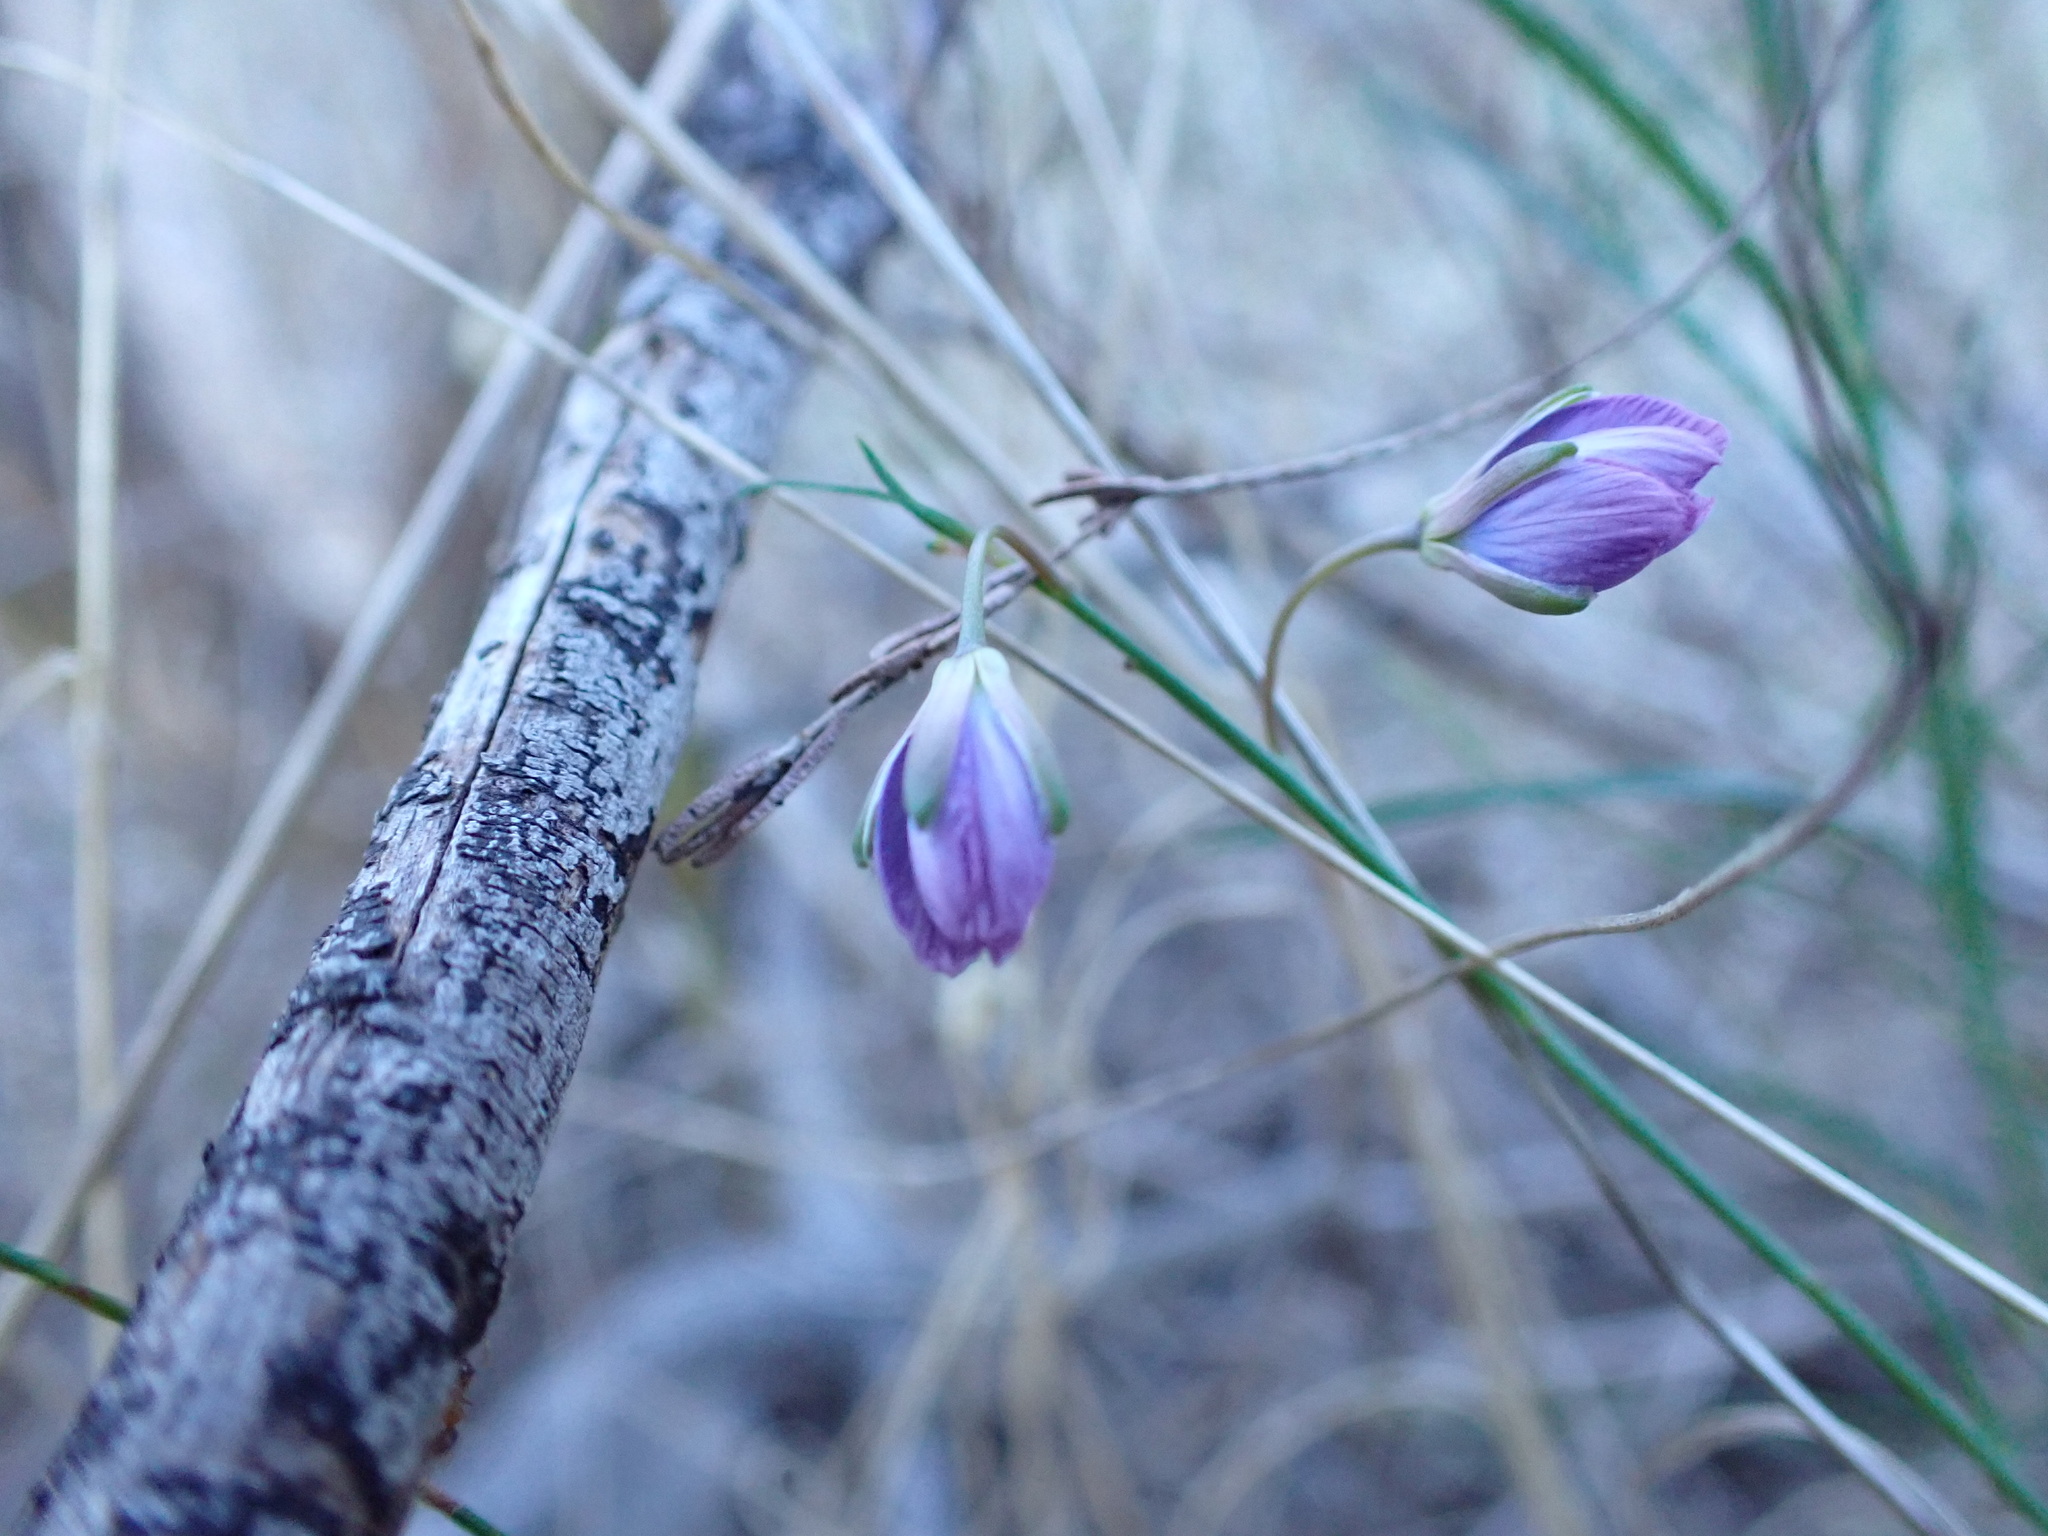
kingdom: Plantae
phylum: Tracheophyta
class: Magnoliopsida
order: Brassicales
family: Brassicaceae
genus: Heliophila
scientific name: Heliophila linearis
